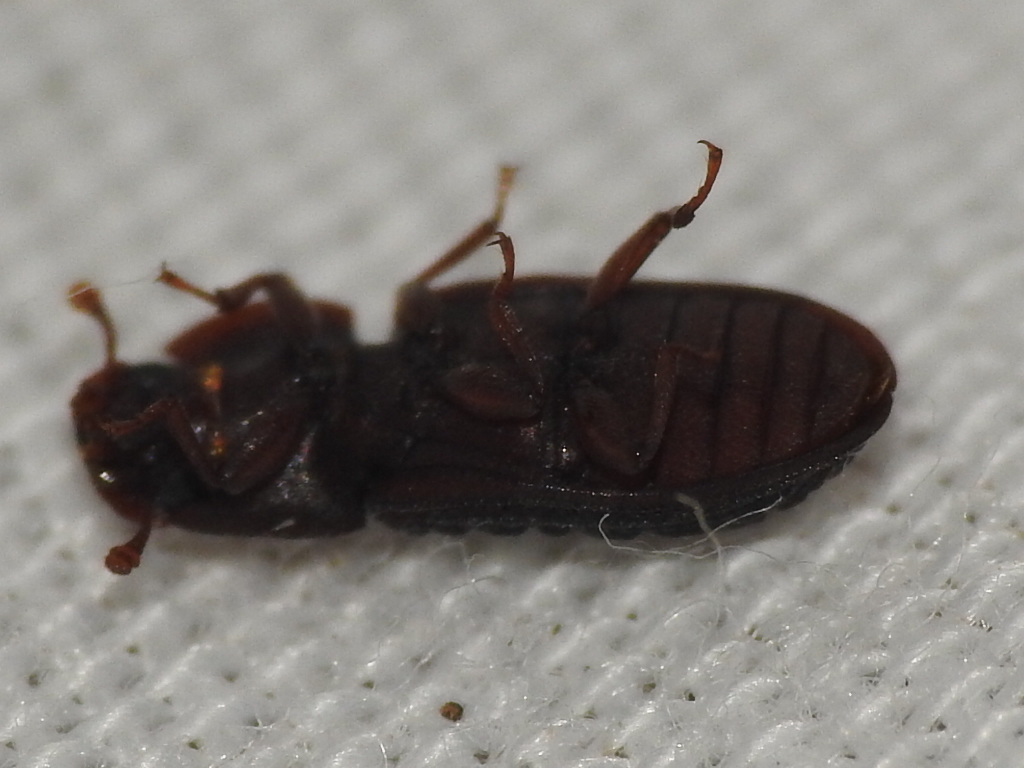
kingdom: Animalia
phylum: Arthropoda
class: Insecta
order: Coleoptera
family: Zopheridae
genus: Phloeonemus
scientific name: Phloeonemus interruptus
